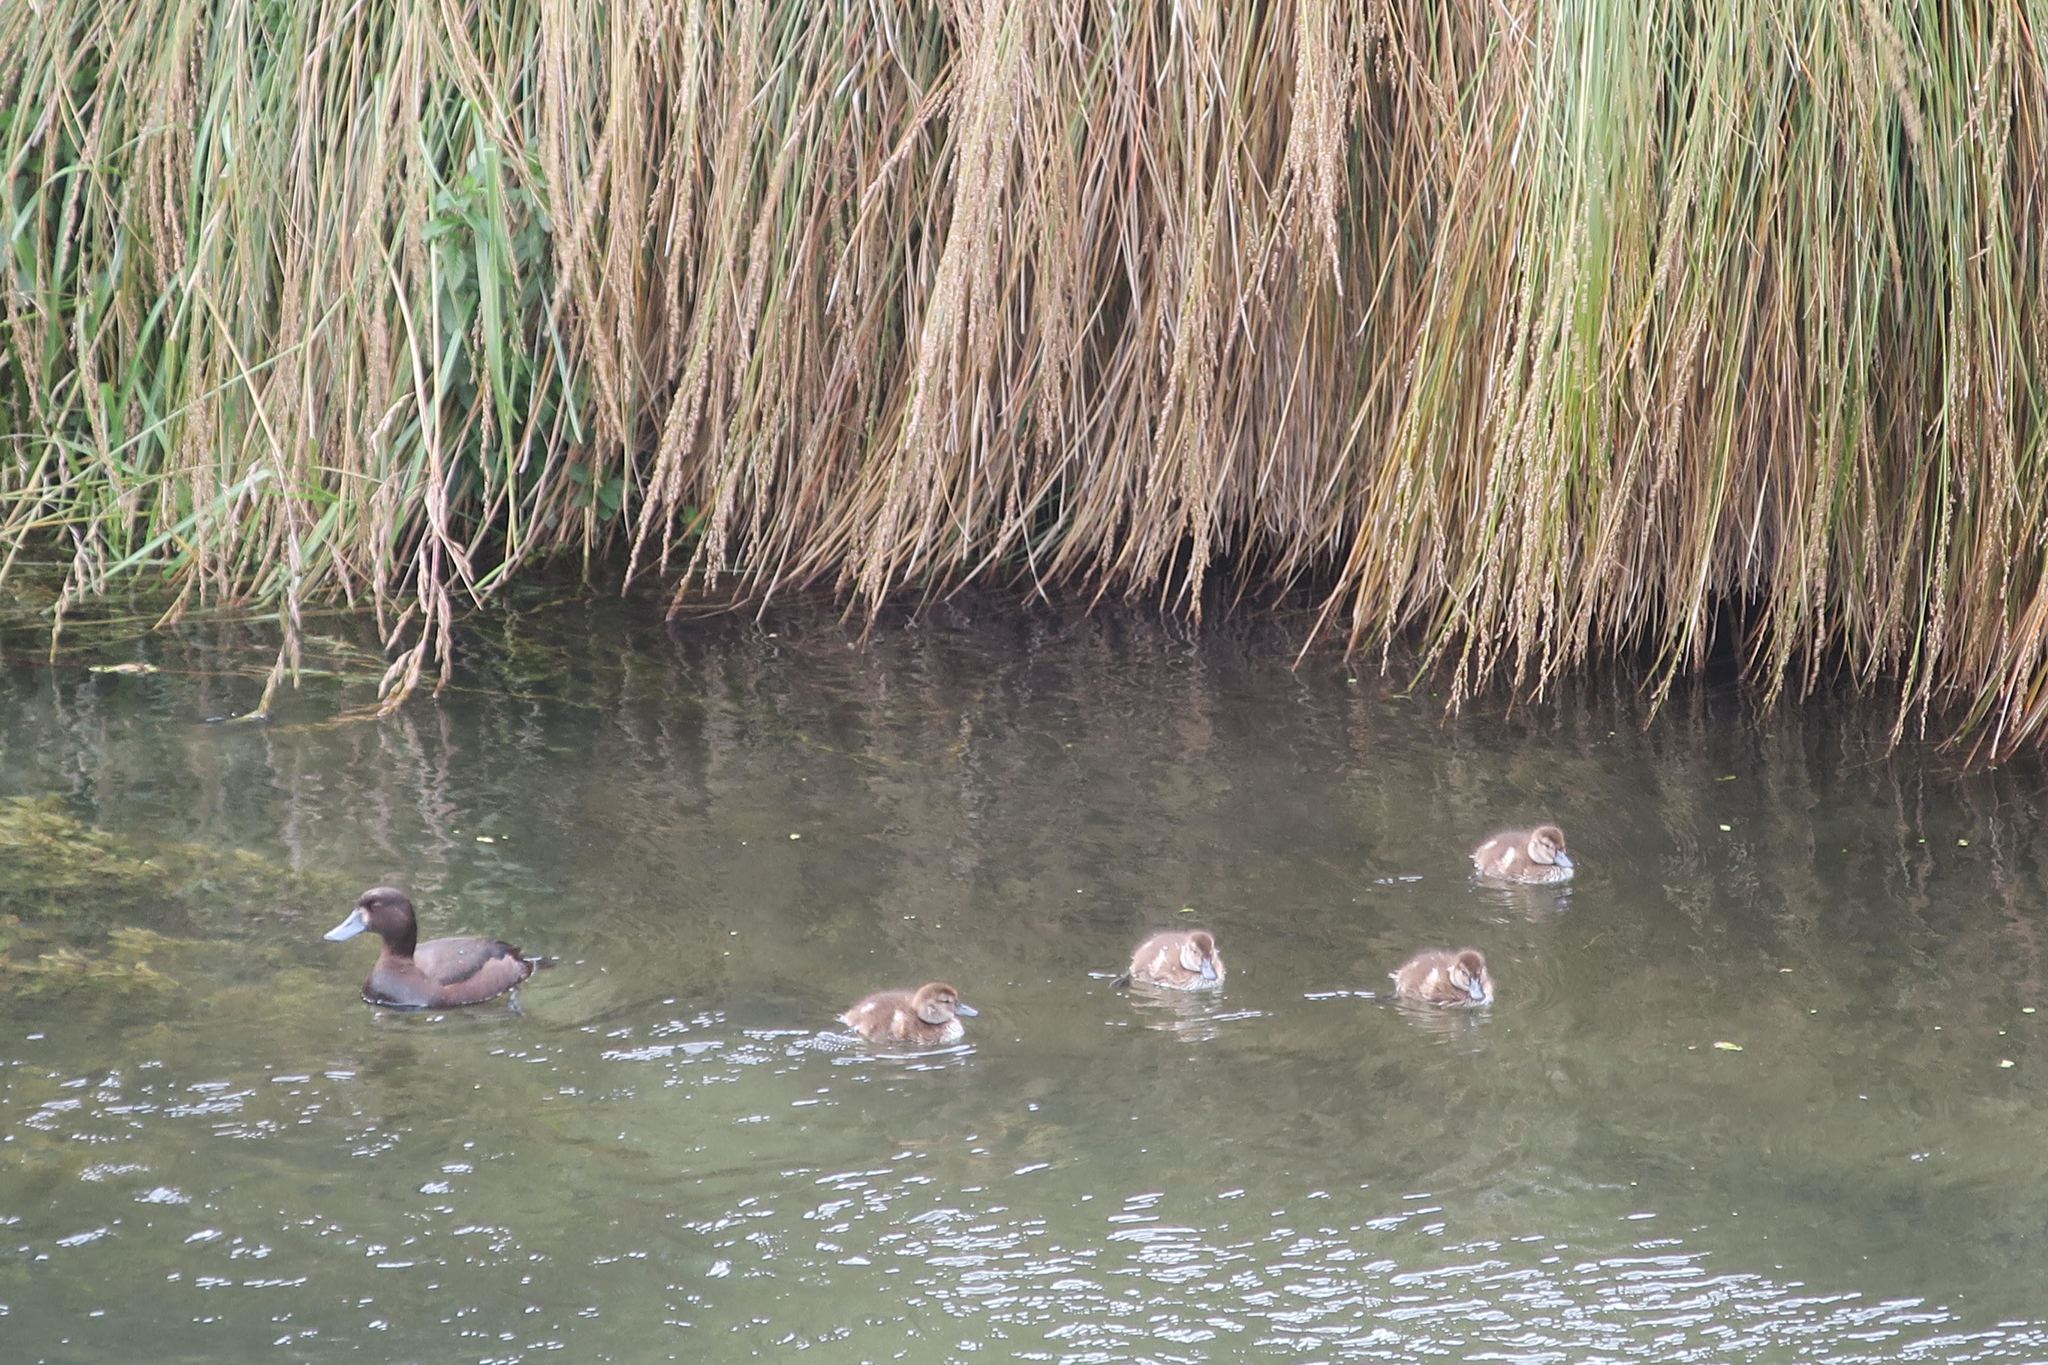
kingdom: Animalia
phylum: Chordata
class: Aves
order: Anseriformes
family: Anatidae
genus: Aythya
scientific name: Aythya novaeseelandiae
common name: New zealand scaup
